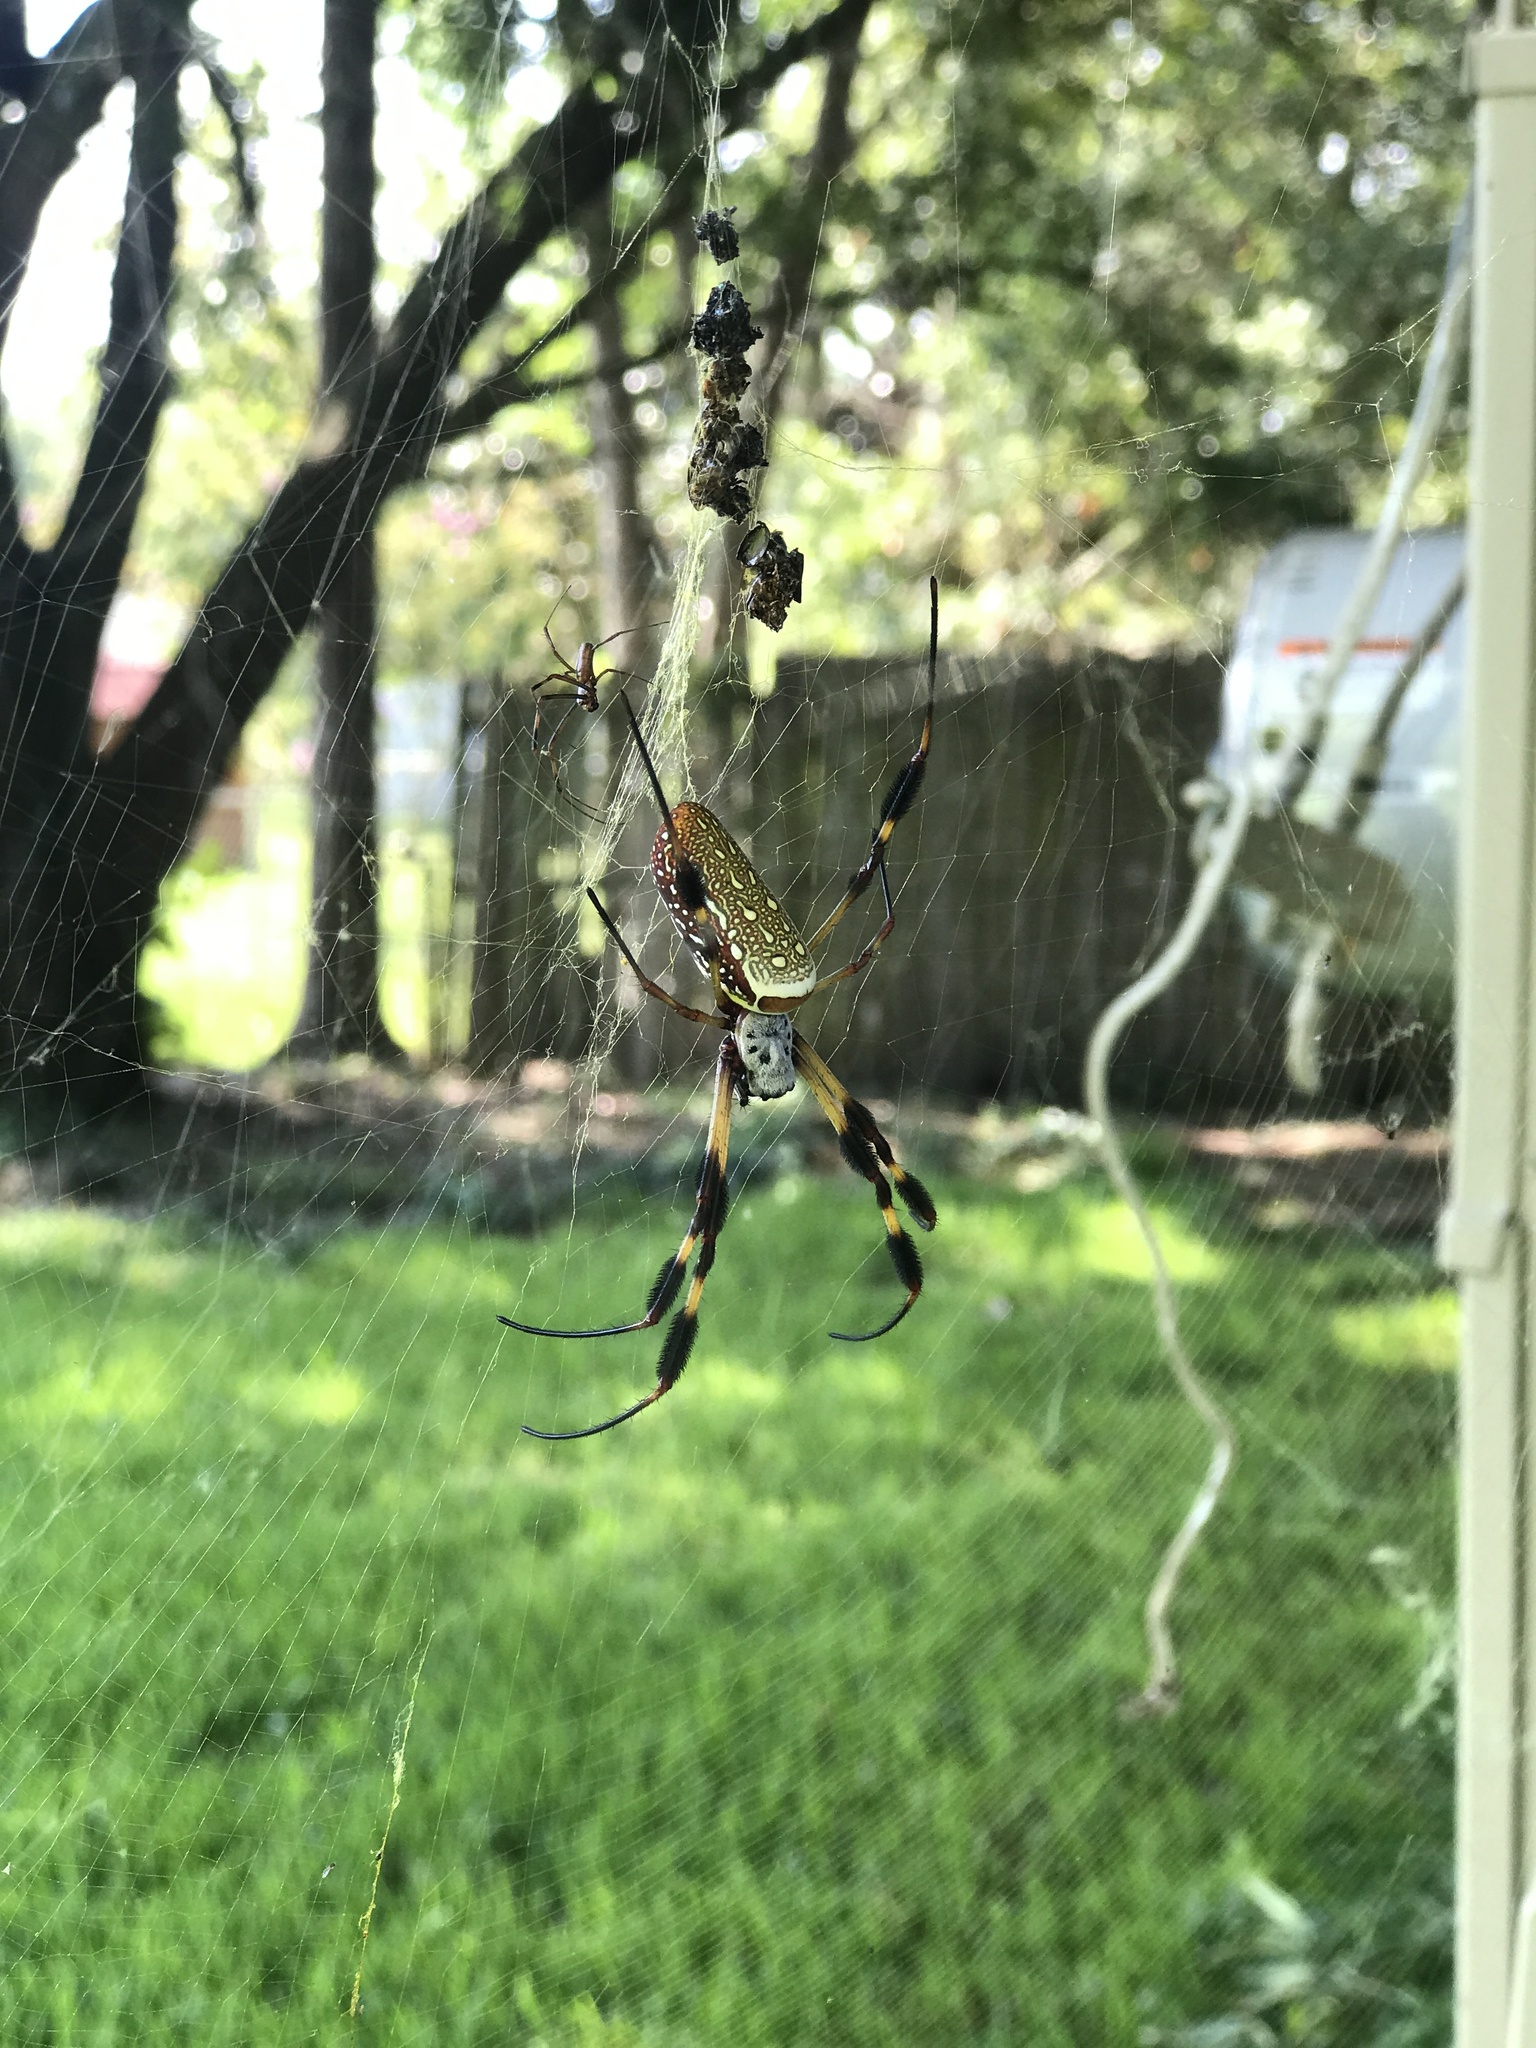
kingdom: Animalia
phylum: Arthropoda
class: Arachnida
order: Araneae
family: Araneidae
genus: Trichonephila
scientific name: Trichonephila clavipes
